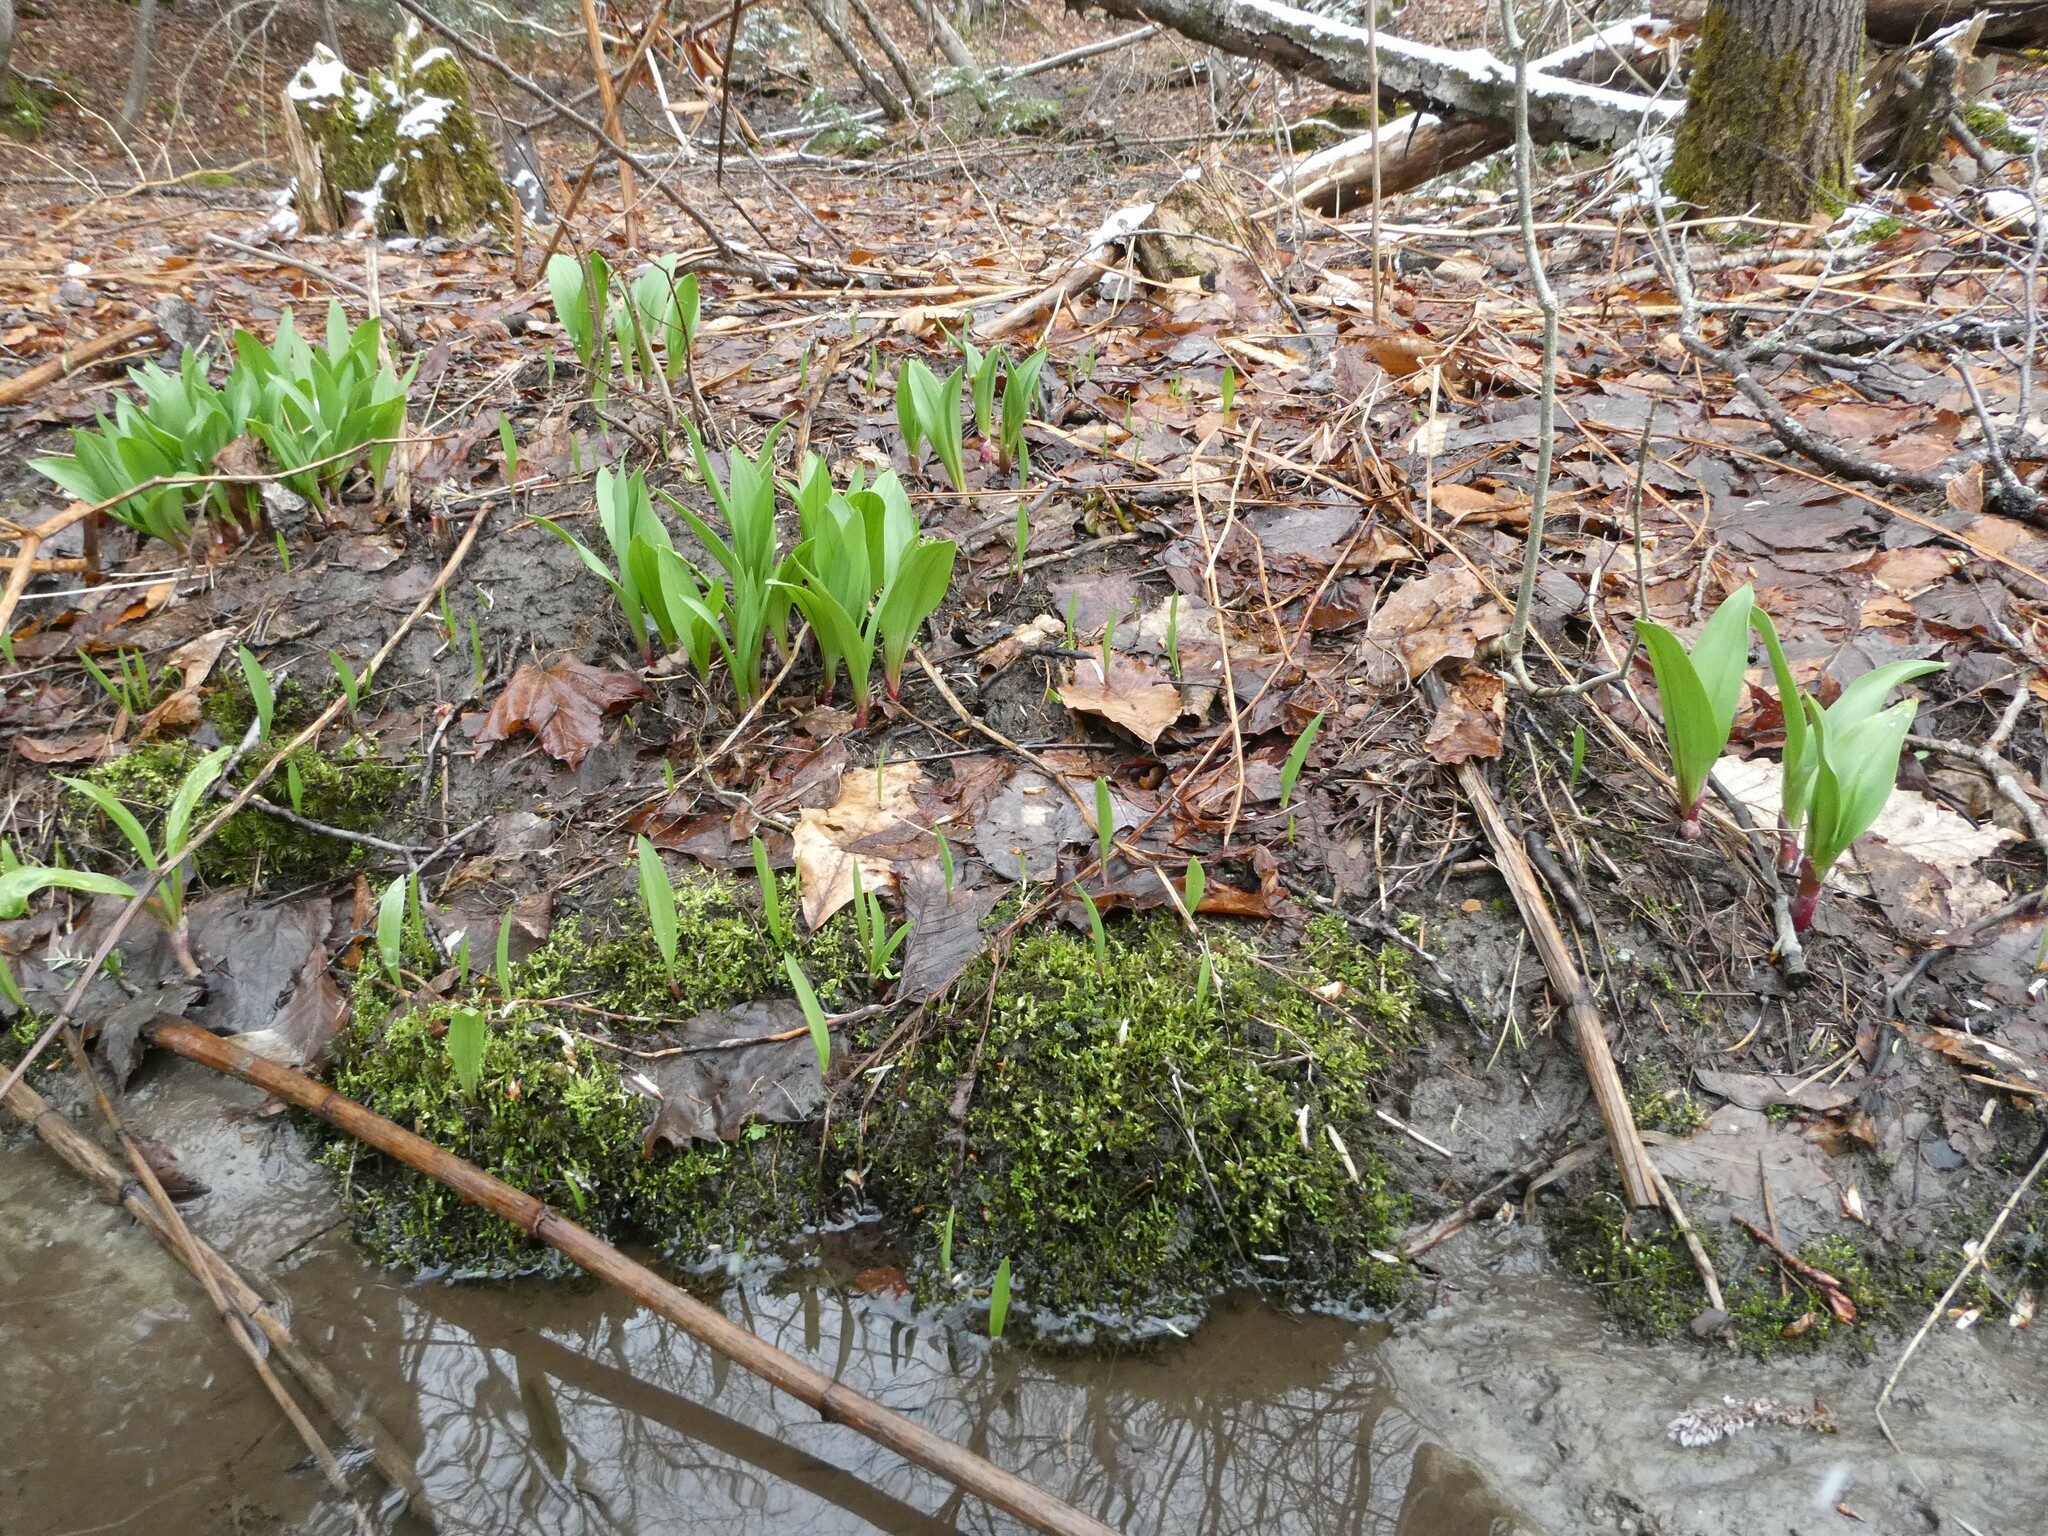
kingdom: Plantae
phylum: Tracheophyta
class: Liliopsida
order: Asparagales
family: Amaryllidaceae
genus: Allium
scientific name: Allium tricoccum
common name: Ramp
